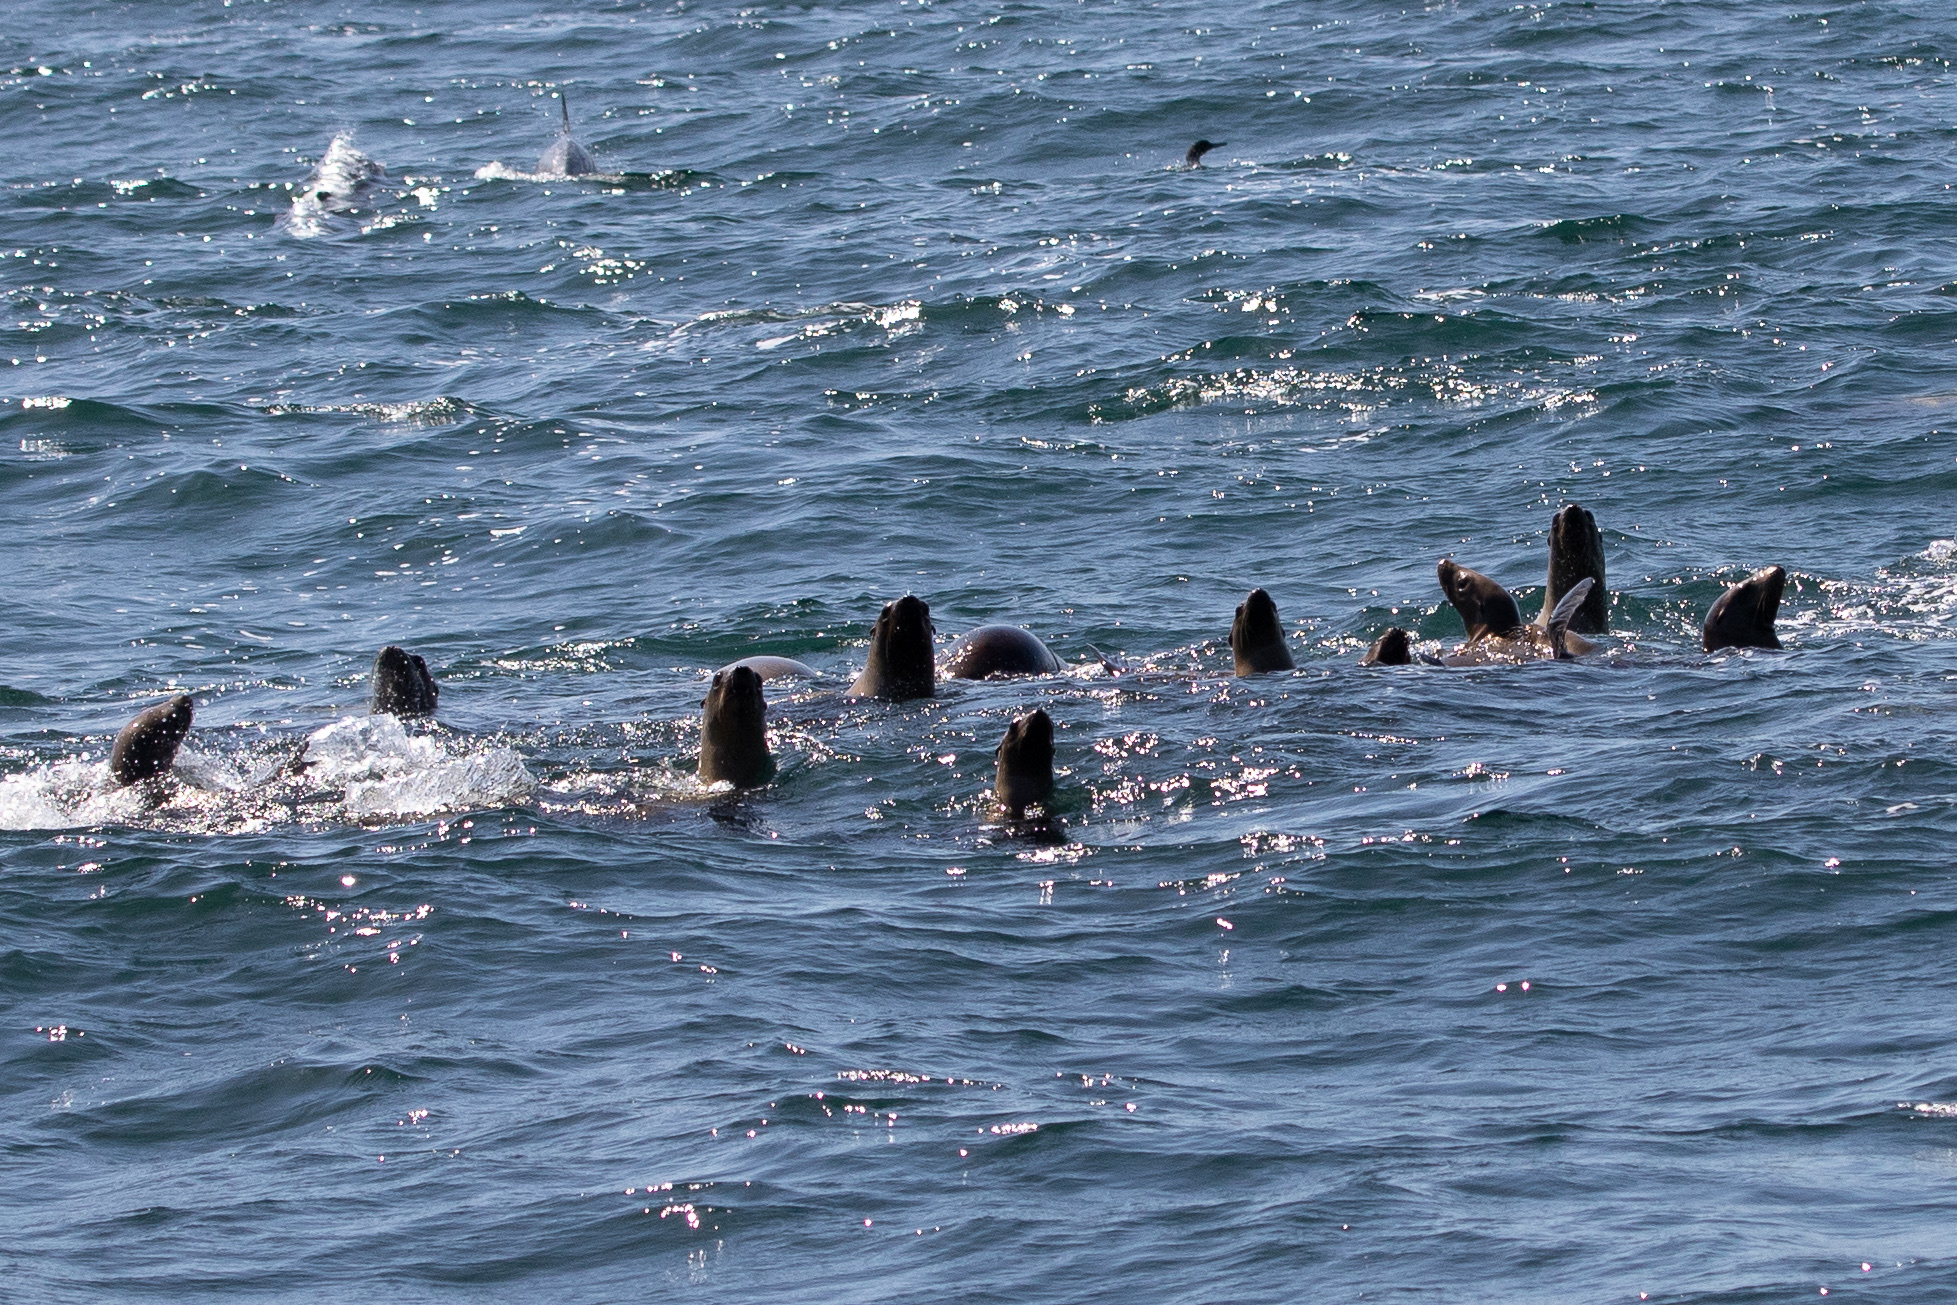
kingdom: Animalia
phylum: Chordata
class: Mammalia
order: Carnivora
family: Otariidae
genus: Zalophus
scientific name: Zalophus californianus
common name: California sea lion
